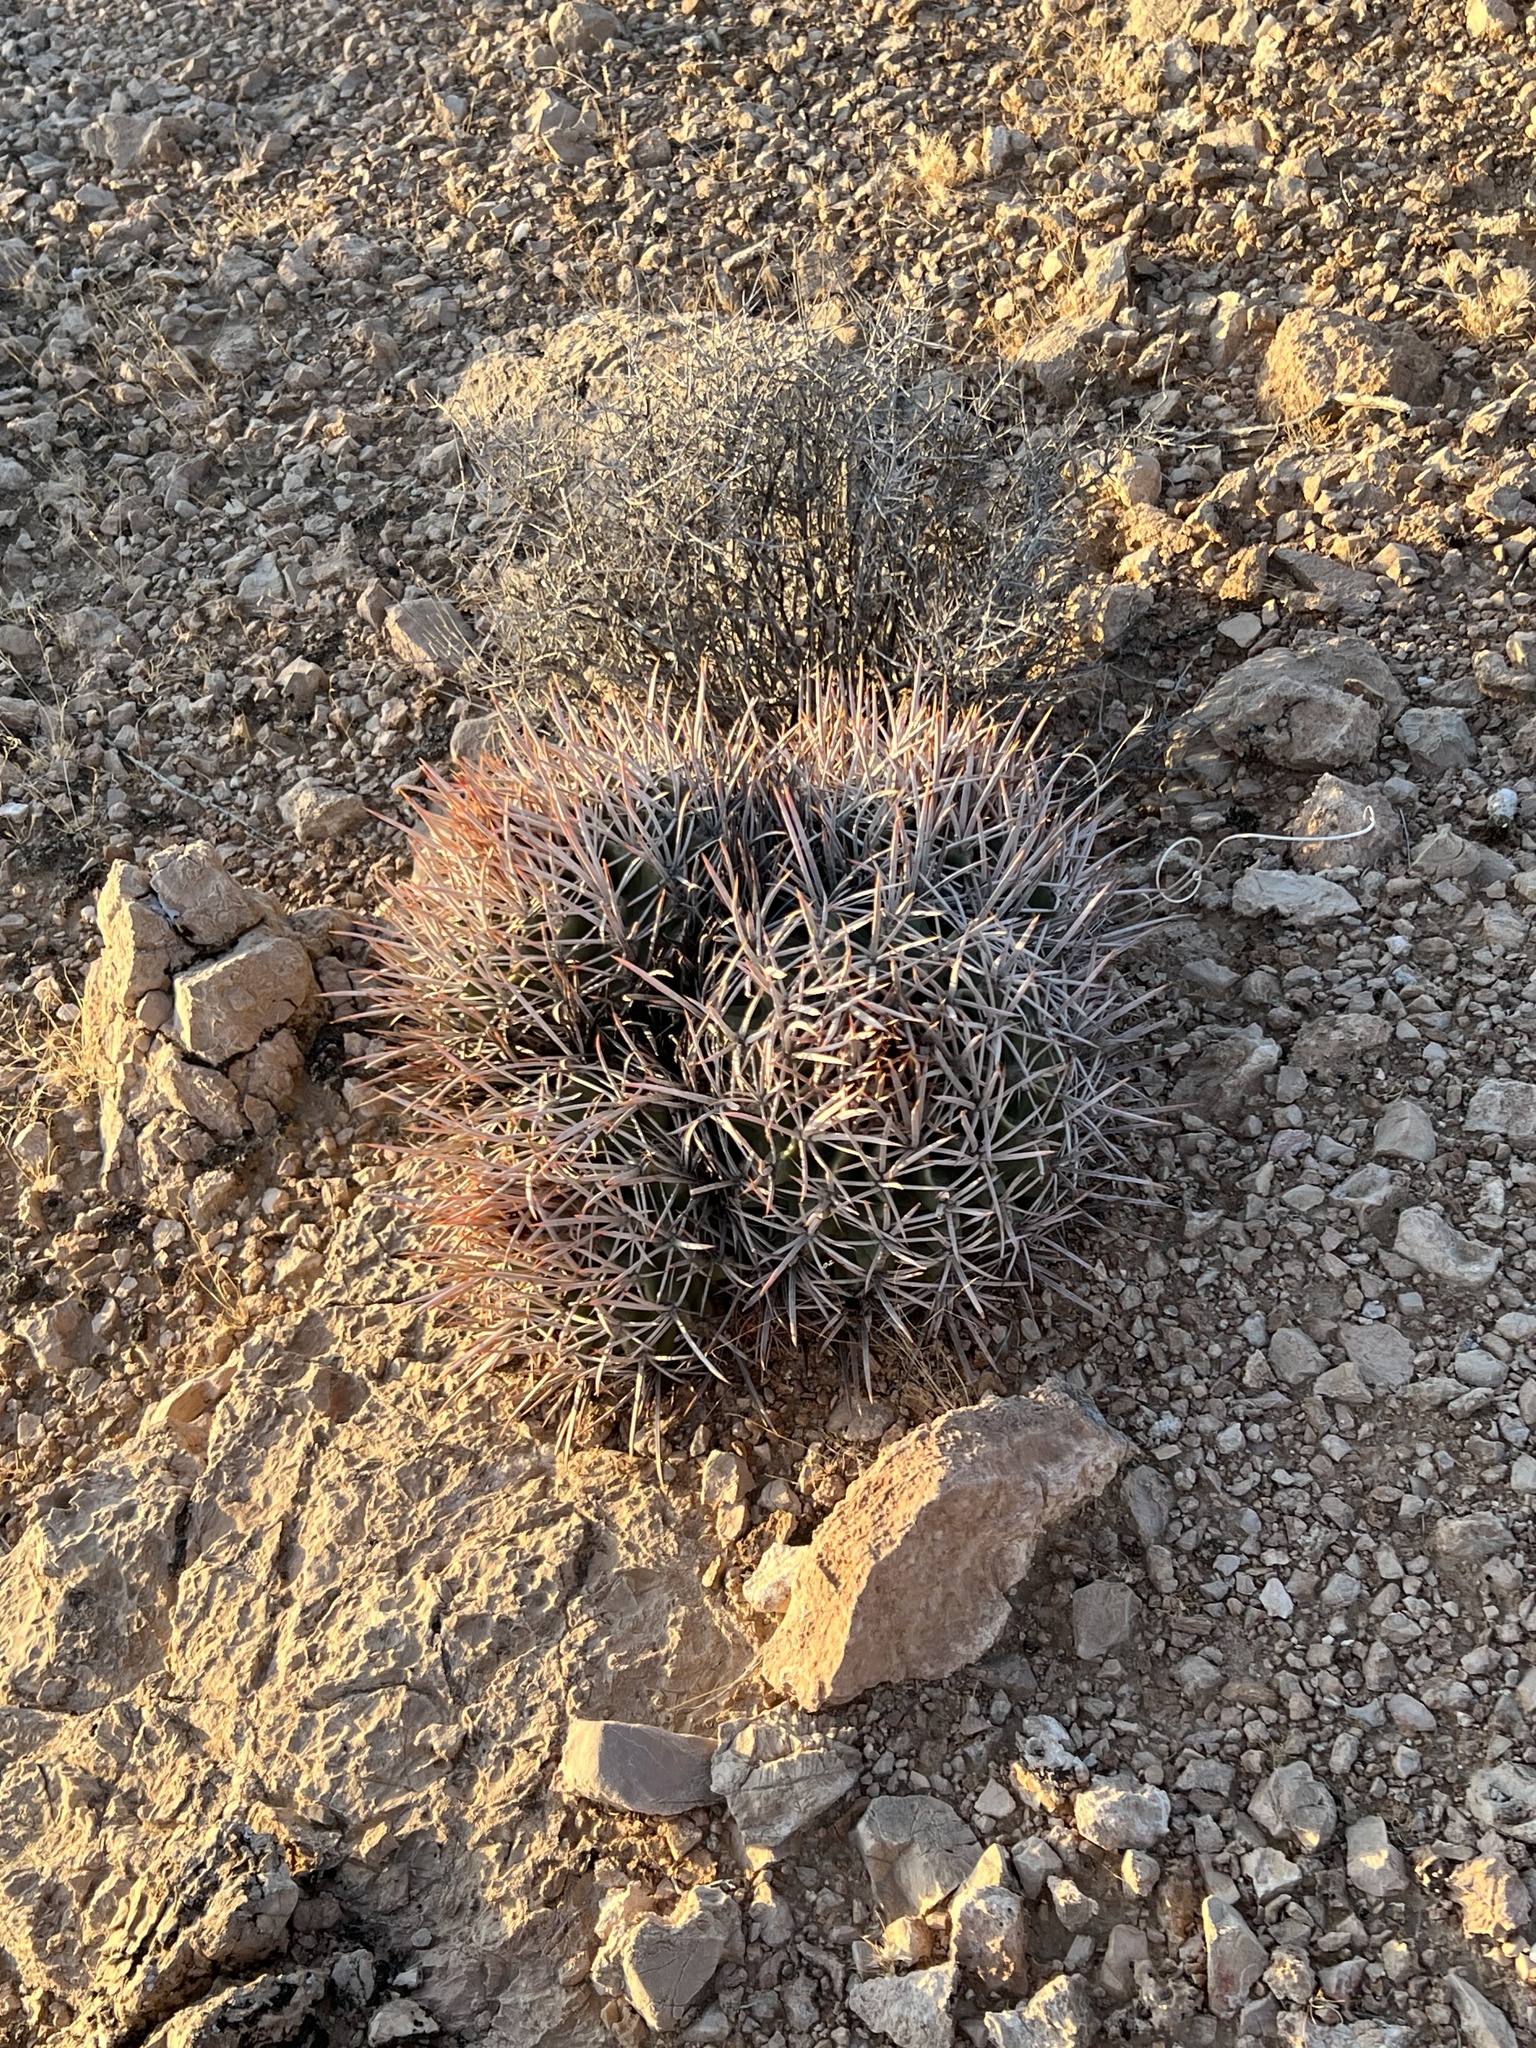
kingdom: Plantae
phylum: Tracheophyta
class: Magnoliopsida
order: Caryophyllales
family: Cactaceae
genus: Echinocactus
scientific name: Echinocactus polycephalus
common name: Cottontop cactus
